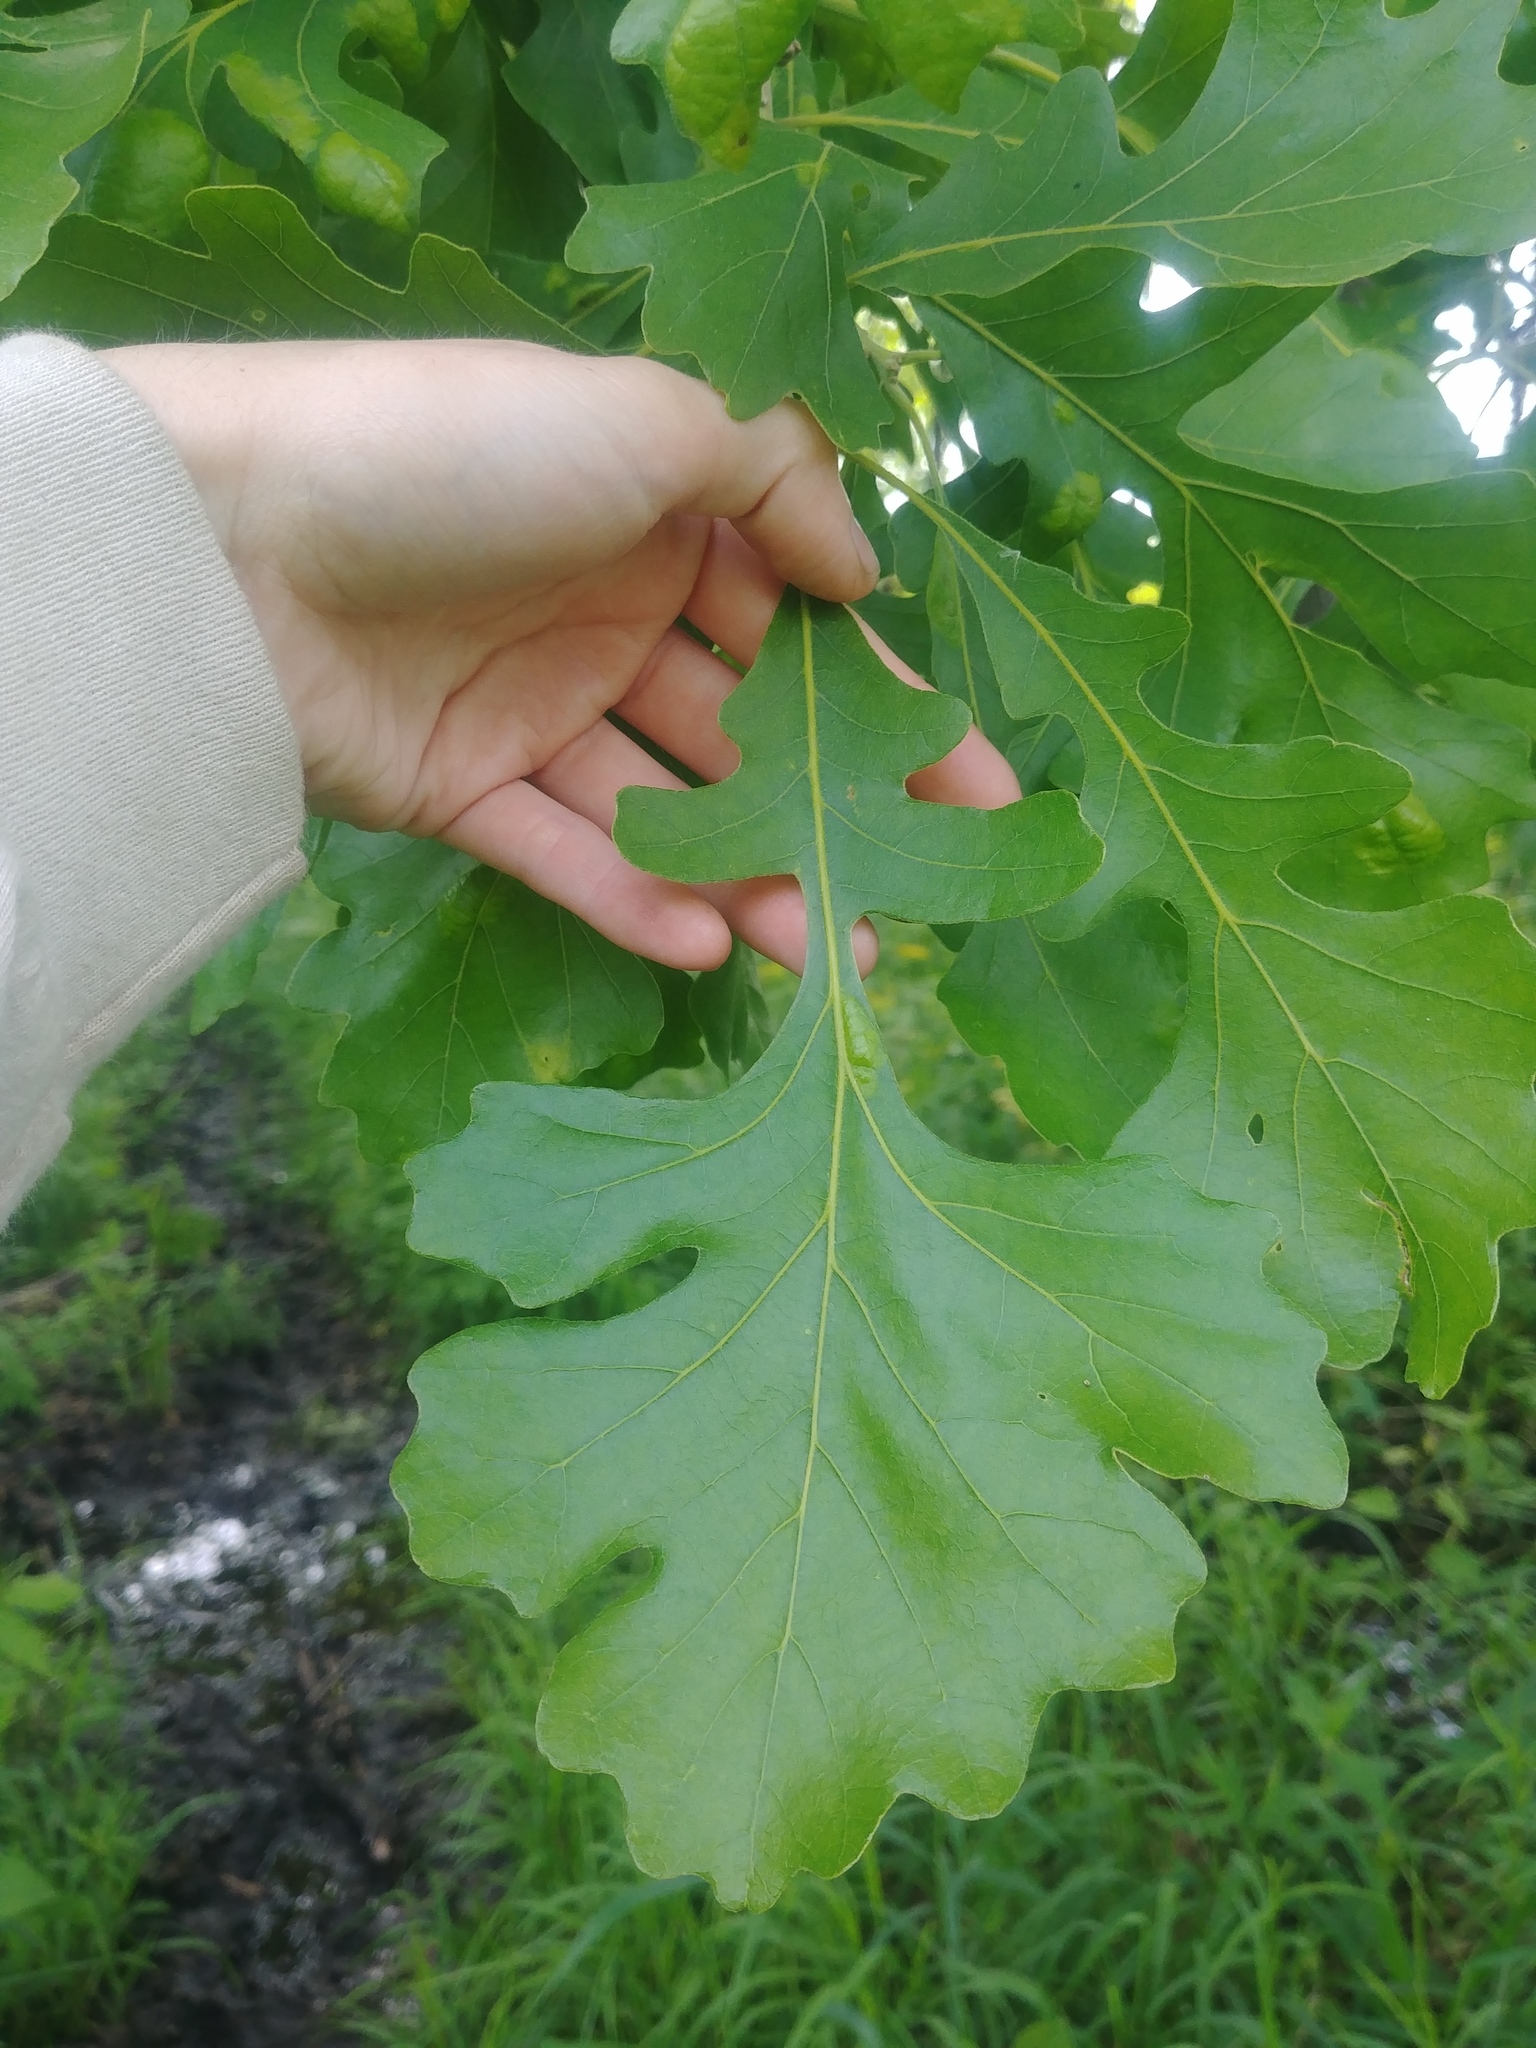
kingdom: Plantae
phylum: Tracheophyta
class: Magnoliopsida
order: Fagales
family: Fagaceae
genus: Quercus
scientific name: Quercus macrocarpa
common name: Bur oak
